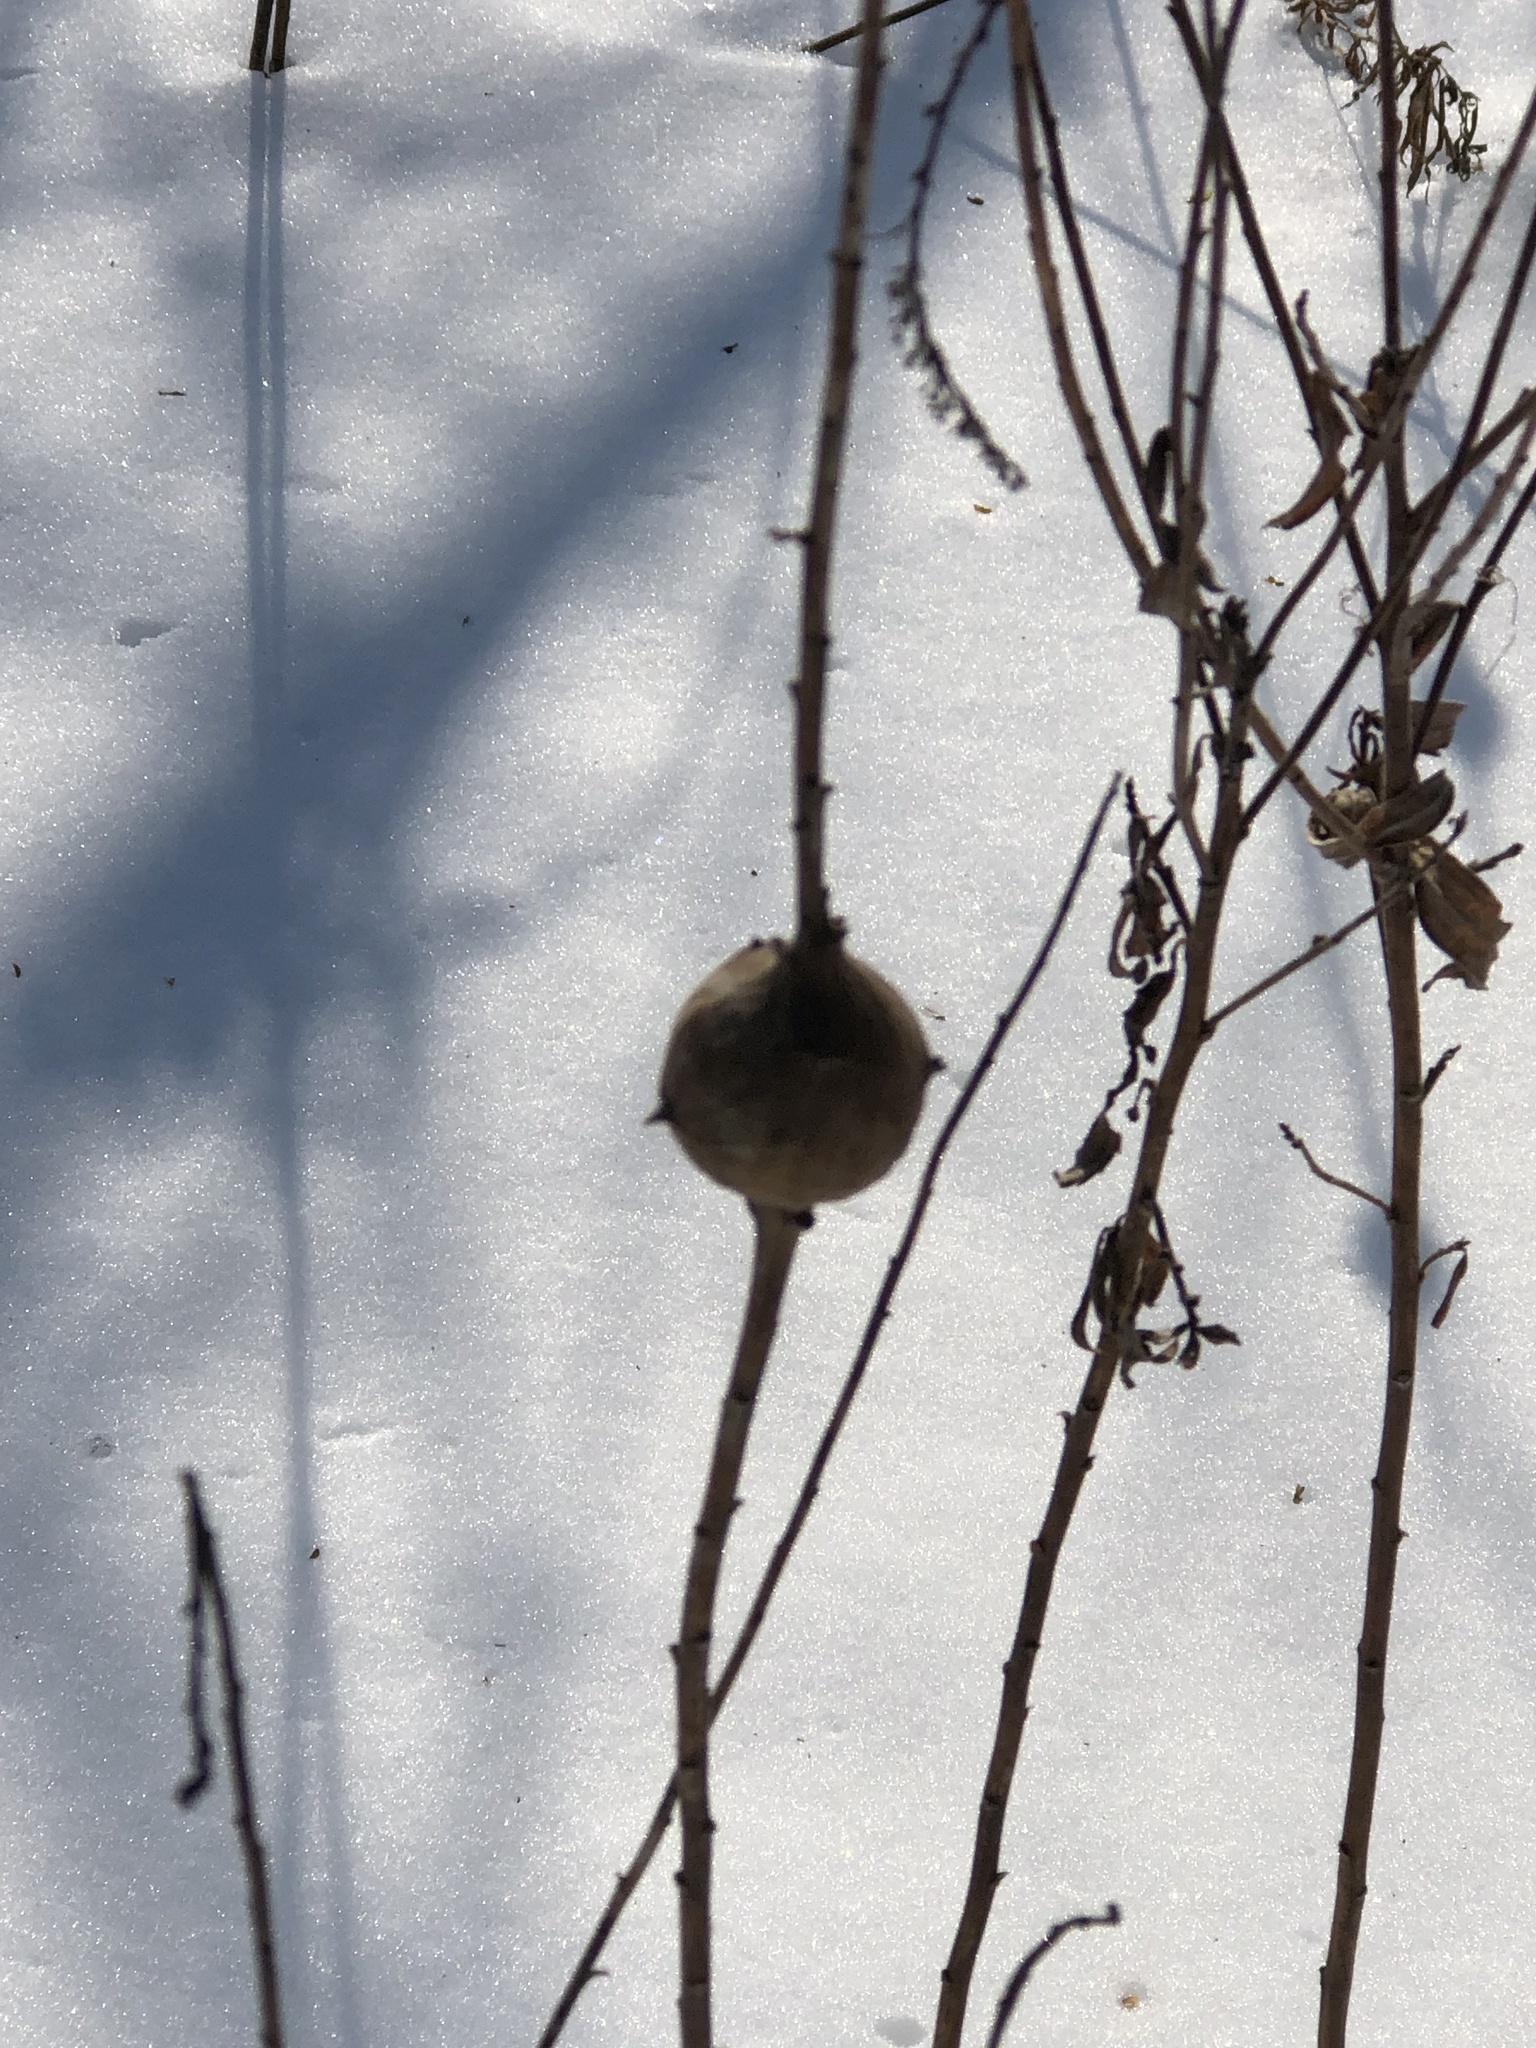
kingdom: Animalia
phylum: Arthropoda
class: Insecta
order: Diptera
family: Tephritidae
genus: Eurosta
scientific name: Eurosta solidaginis
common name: Goldenrod gall fly
